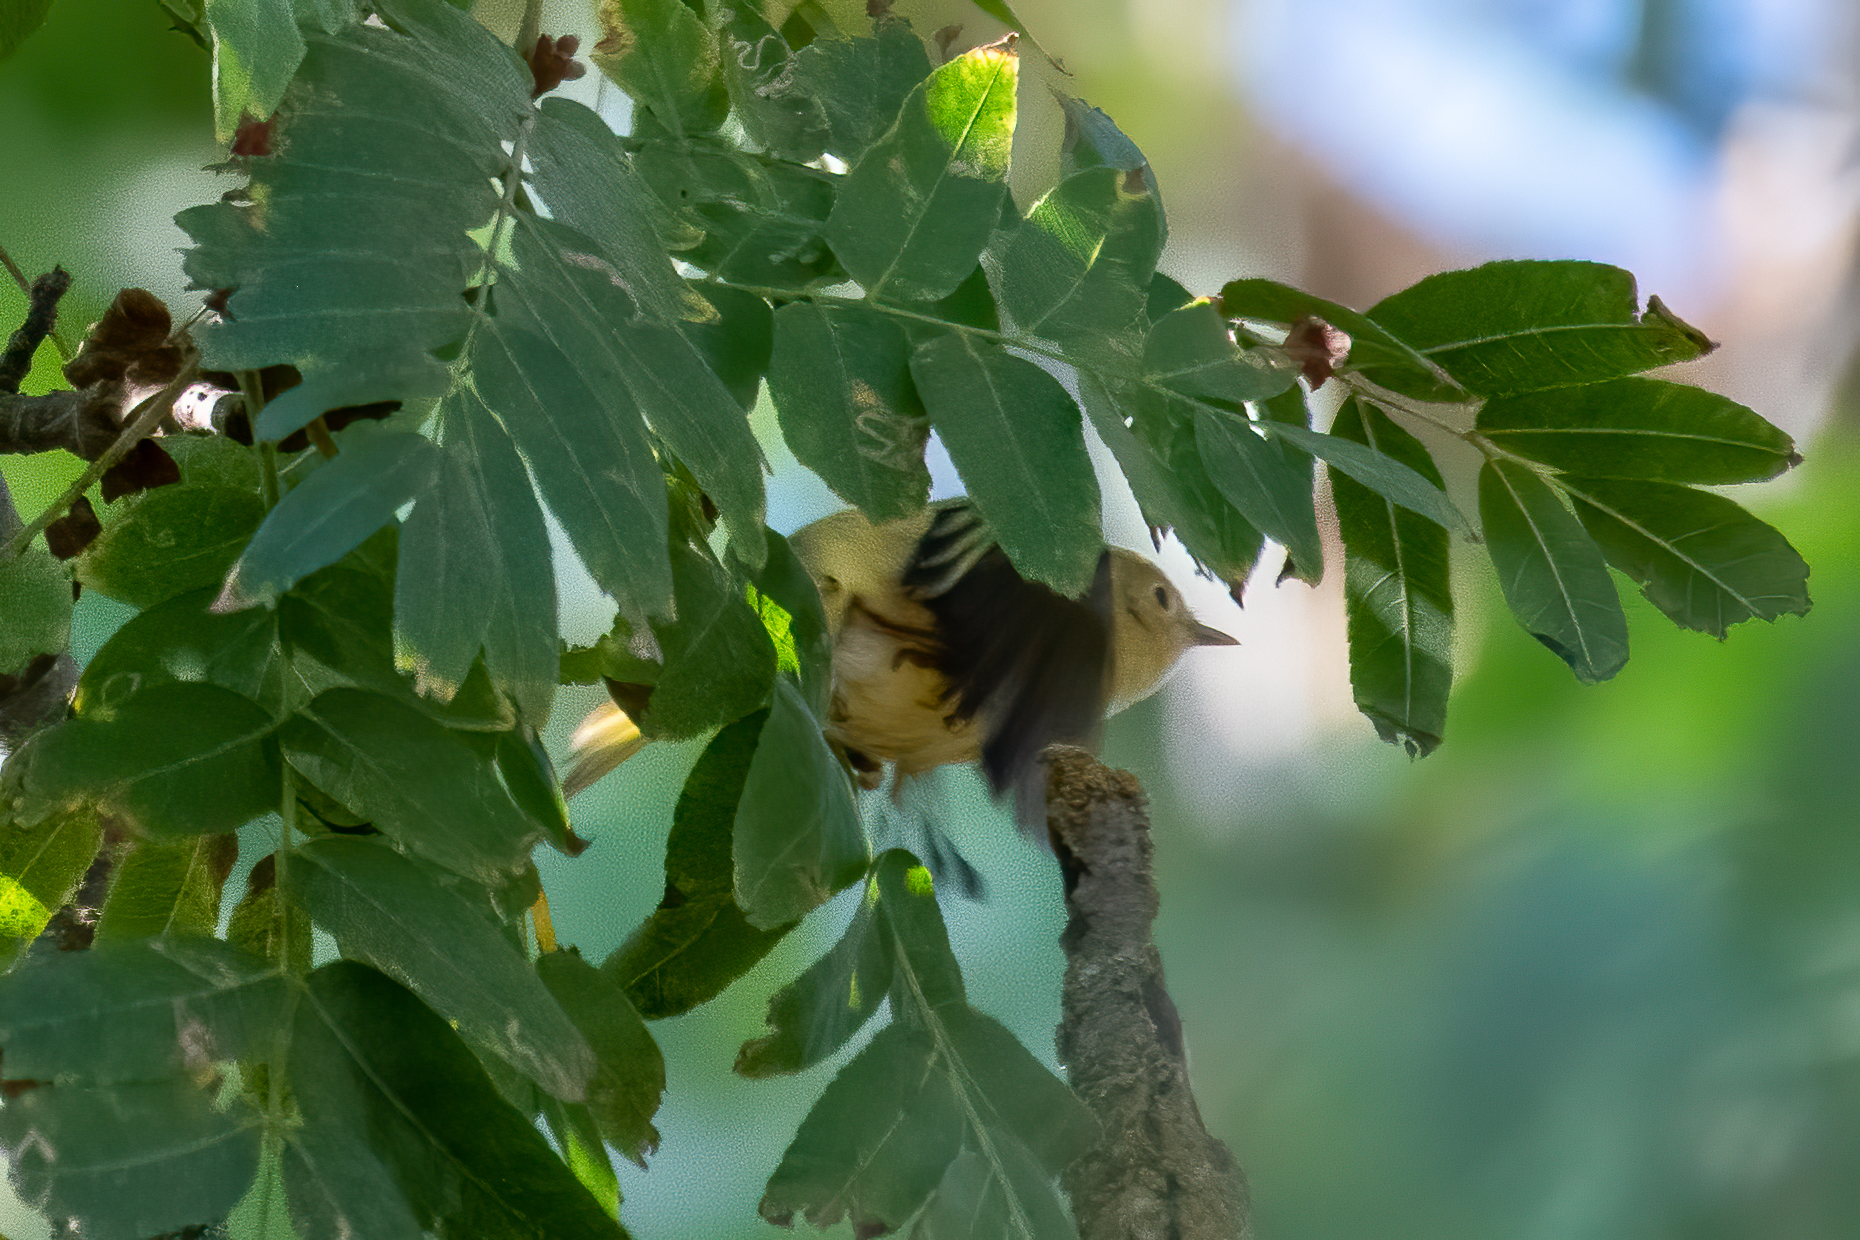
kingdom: Animalia
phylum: Chordata
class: Aves
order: Passeriformes
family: Parulidae
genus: Setophaga
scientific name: Setophaga petechia
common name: Yellow warbler
